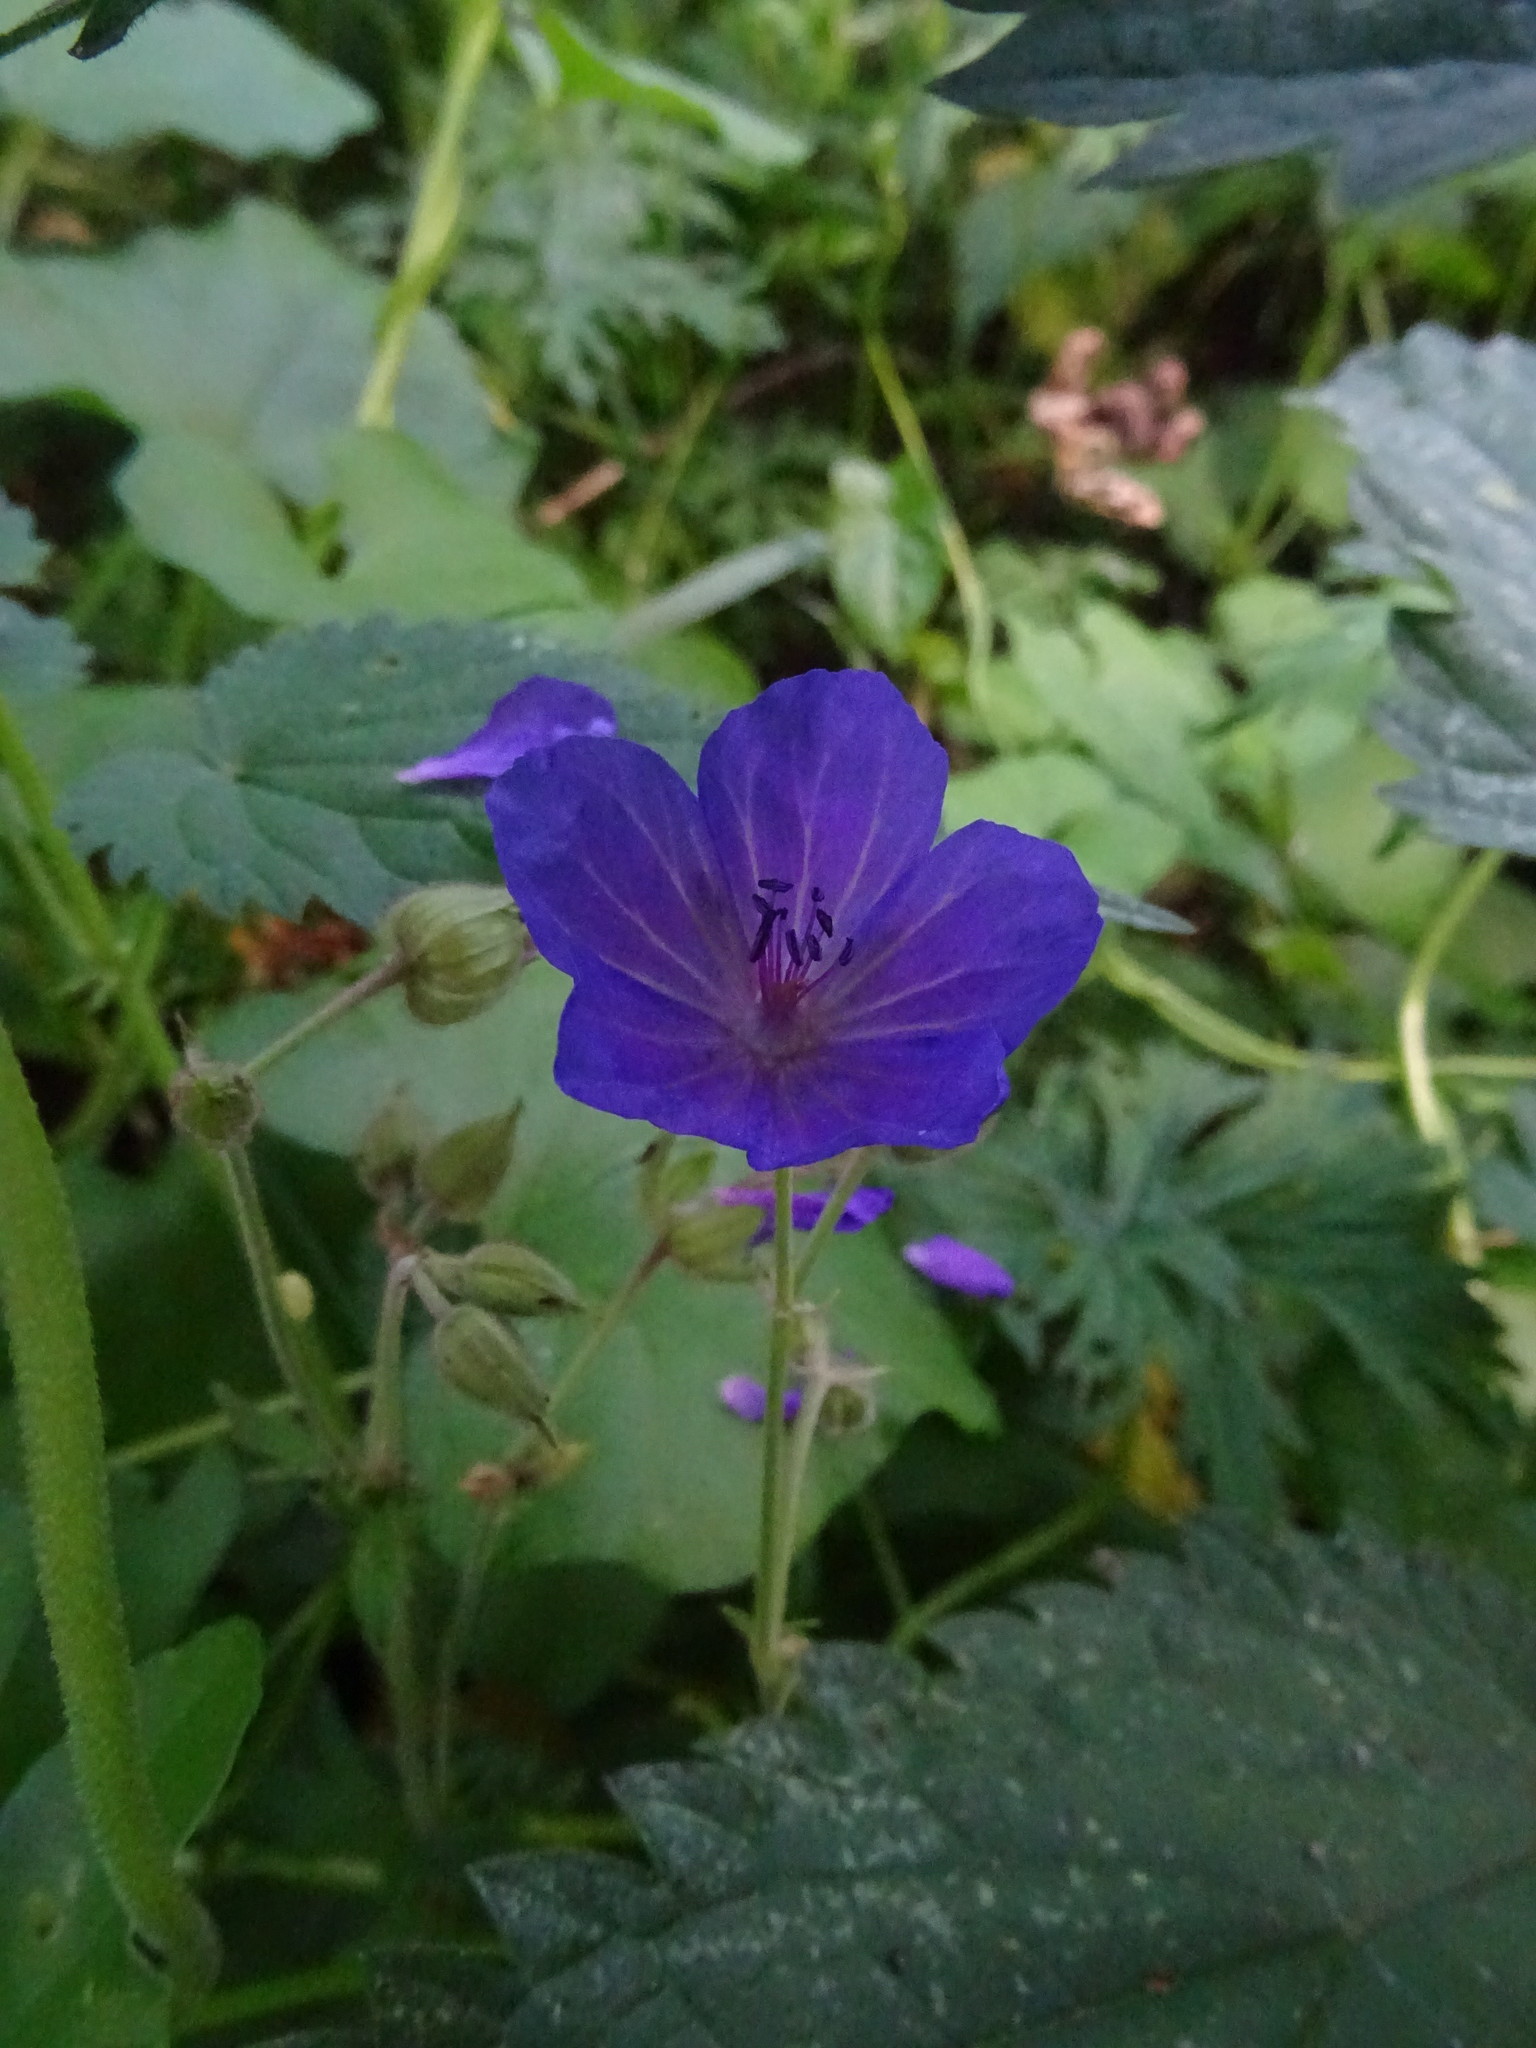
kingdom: Plantae
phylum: Tracheophyta
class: Magnoliopsida
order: Geraniales
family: Geraniaceae
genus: Geranium
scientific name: Geranium pratense
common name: Meadow crane's-bill
